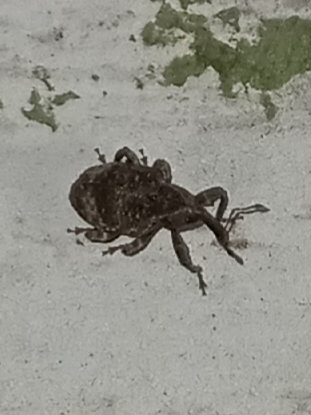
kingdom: Animalia
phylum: Arthropoda
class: Insecta
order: Coleoptera
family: Curculionidae
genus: Conotrachelus
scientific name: Conotrachelus seniculus
